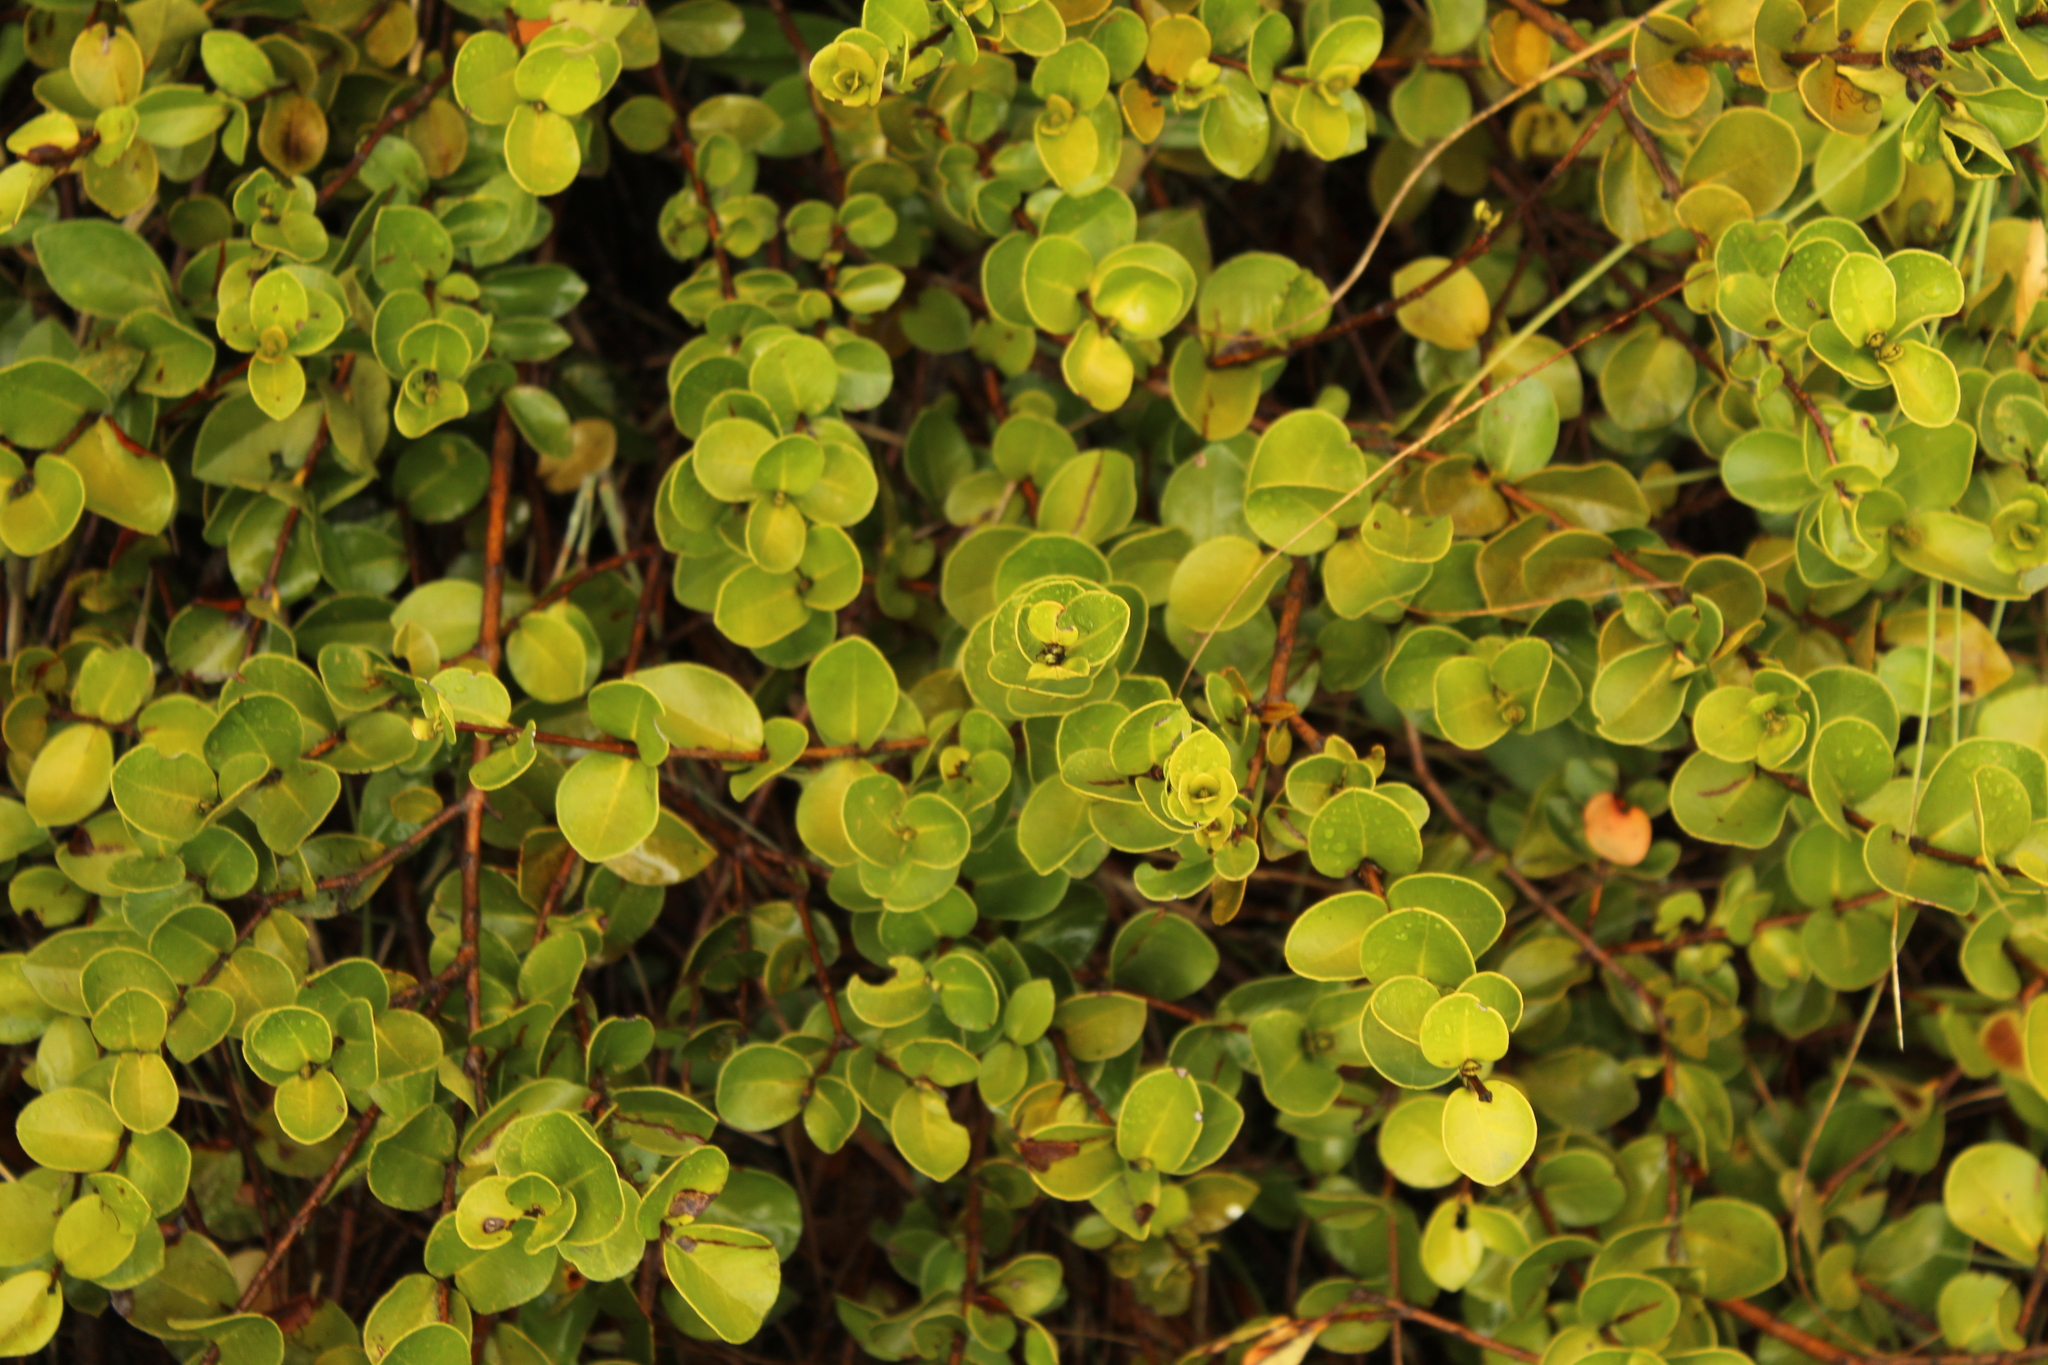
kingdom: Plantae
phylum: Tracheophyta
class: Magnoliopsida
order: Myrtales
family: Myrtaceae
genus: Myrcianthes
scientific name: Myrcianthes leucoxyla
